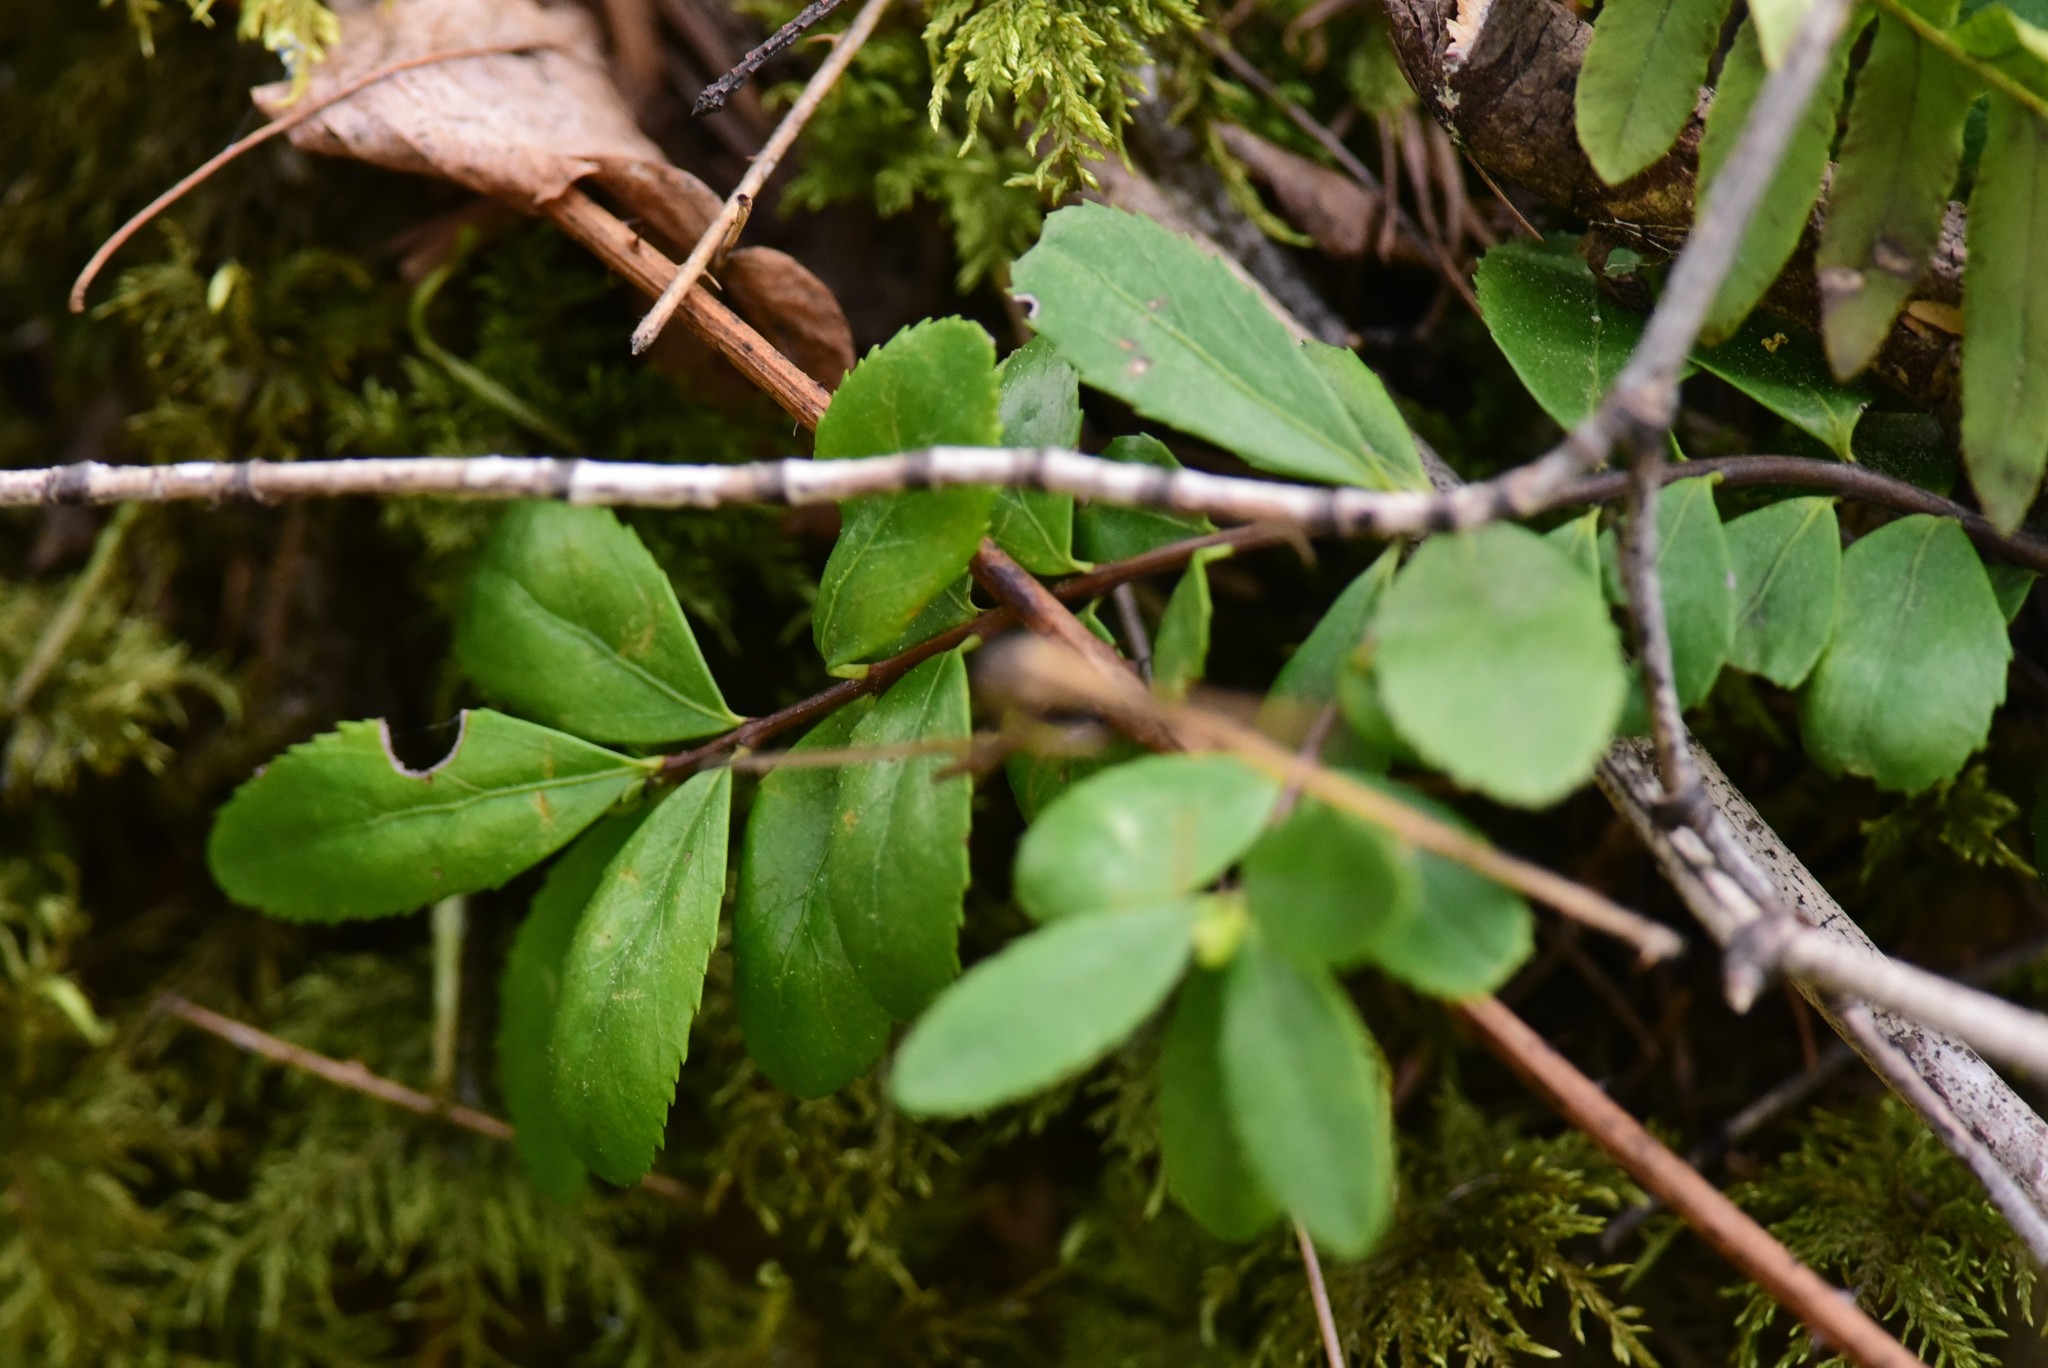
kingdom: Plantae
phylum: Tracheophyta
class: Magnoliopsida
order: Celastrales
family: Celastraceae
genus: Paxistima
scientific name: Paxistima myrsinites
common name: Mountain-lover
